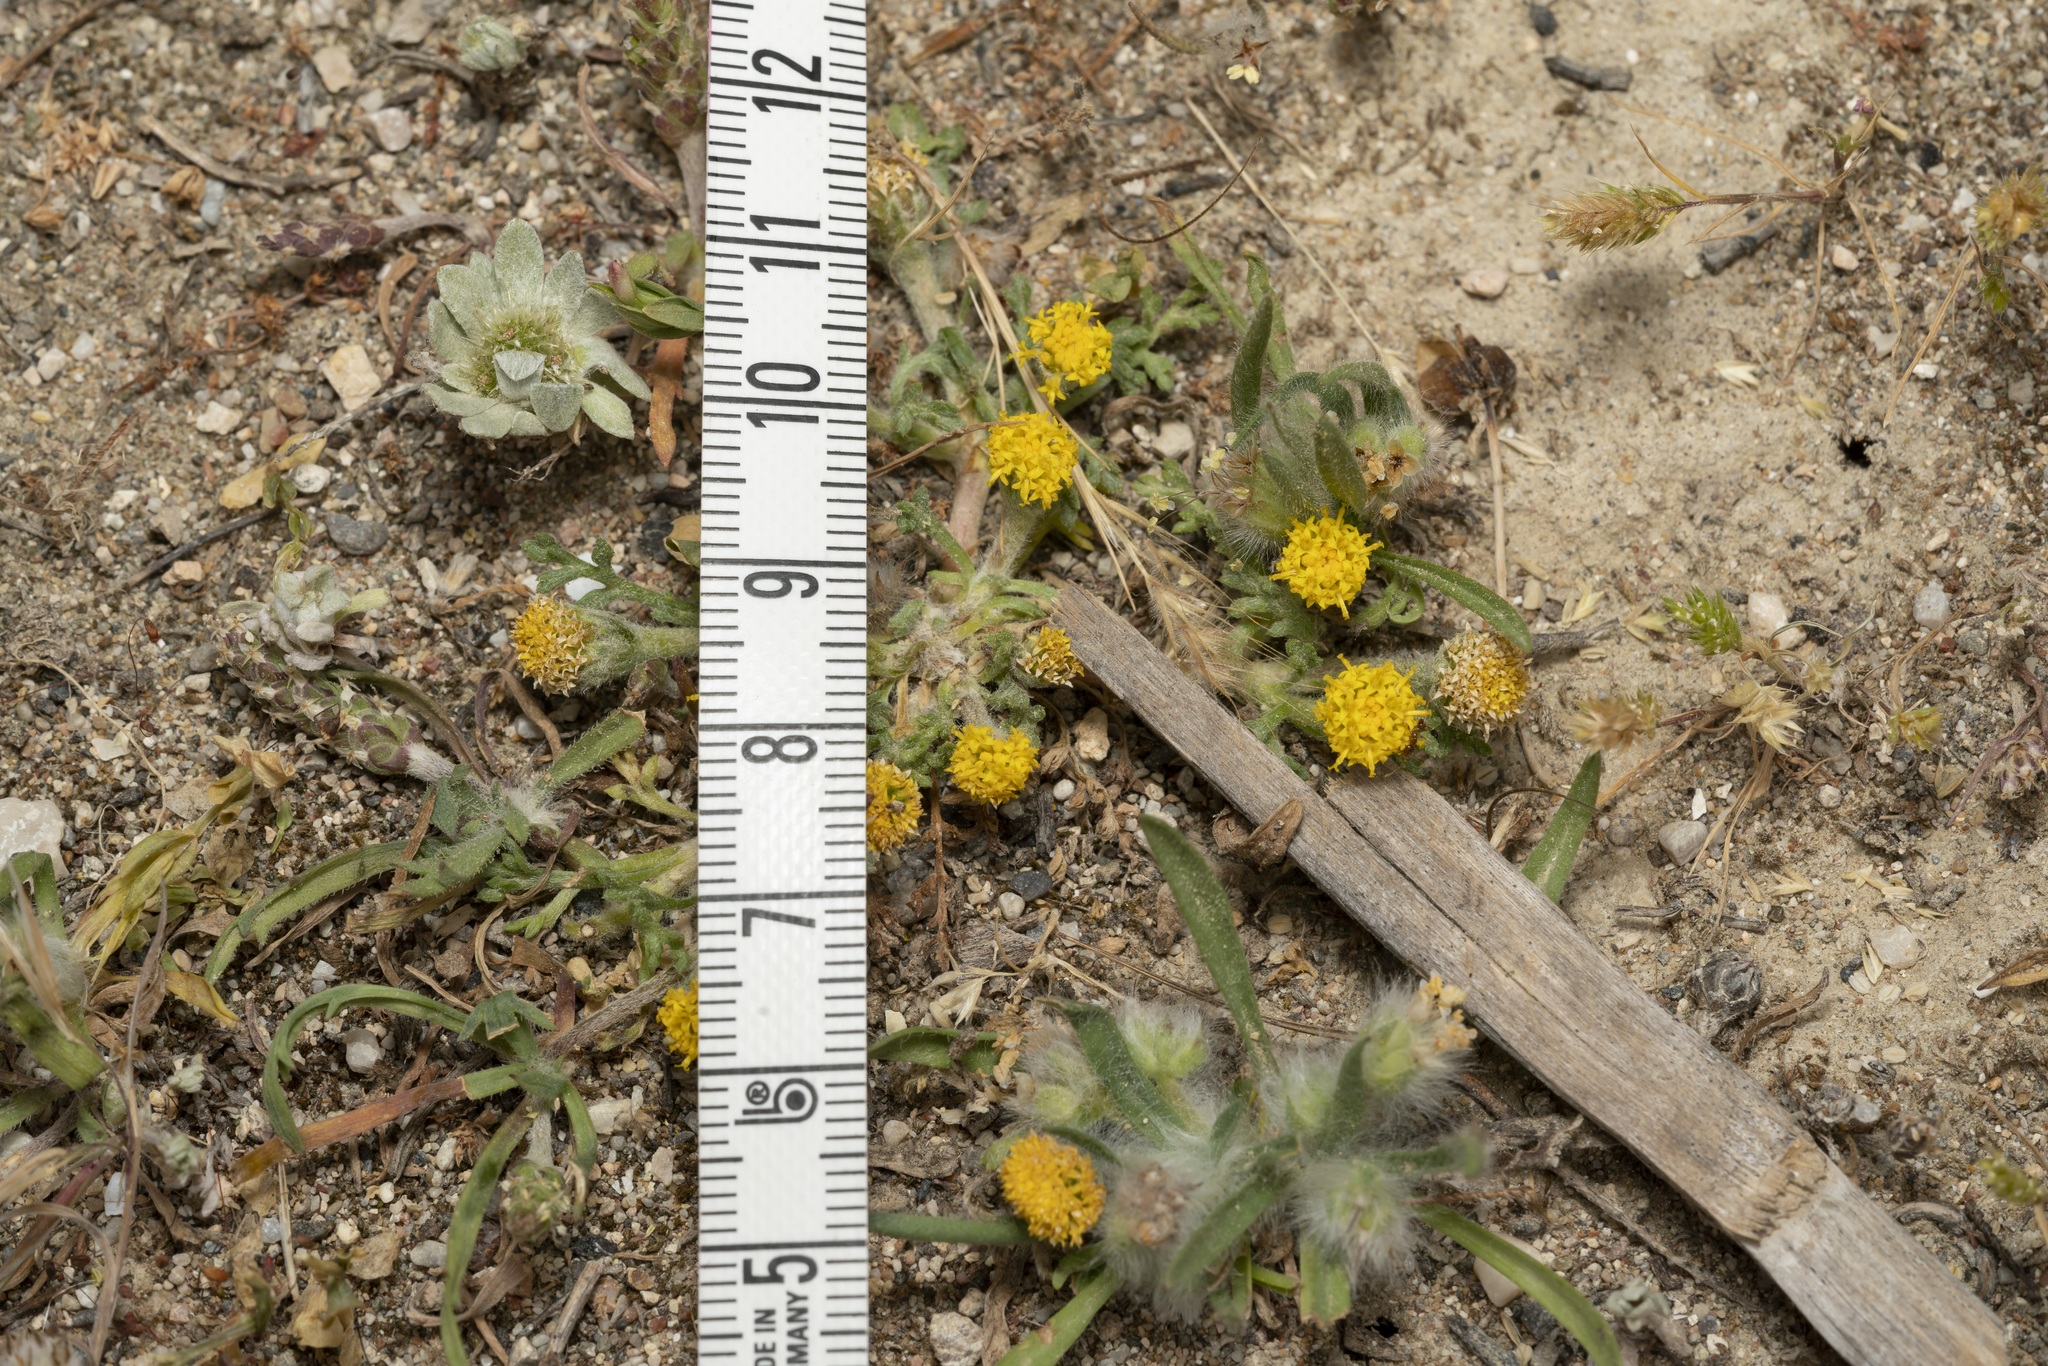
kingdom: Plantae
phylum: Tracheophyta
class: Magnoliopsida
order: Asterales
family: Asteraceae
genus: Anthemis
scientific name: Anthemis rigida
